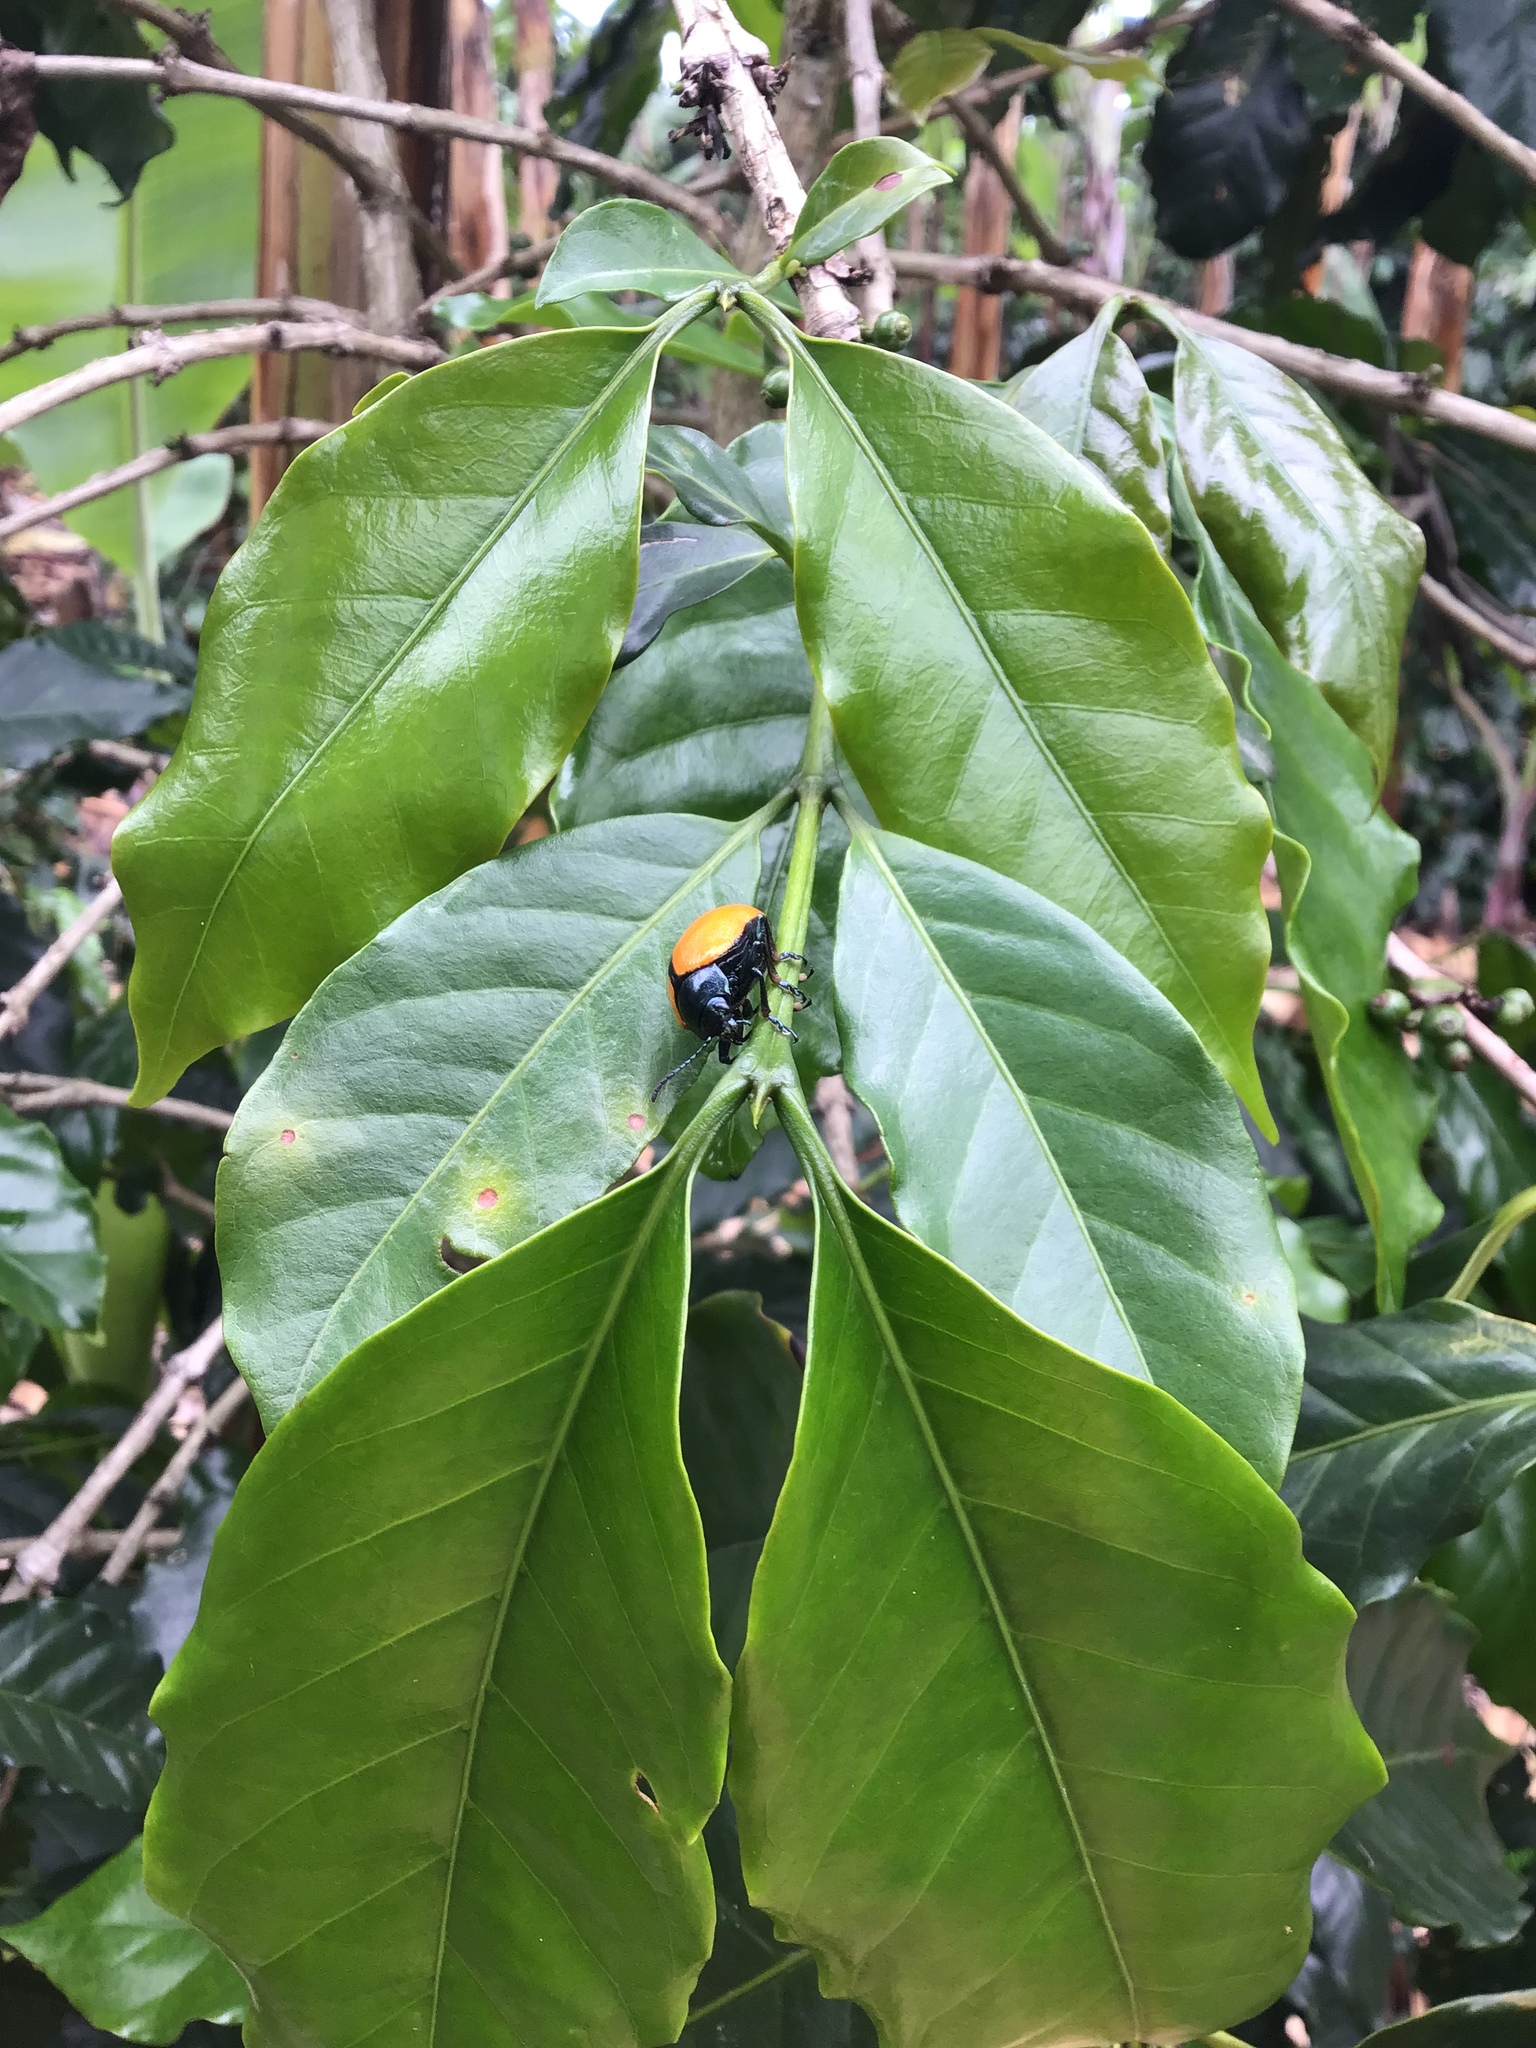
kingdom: Animalia
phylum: Arthropoda
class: Insecta
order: Coleoptera
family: Chrysomelidae
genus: Leptinotarsa
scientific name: Leptinotarsa
